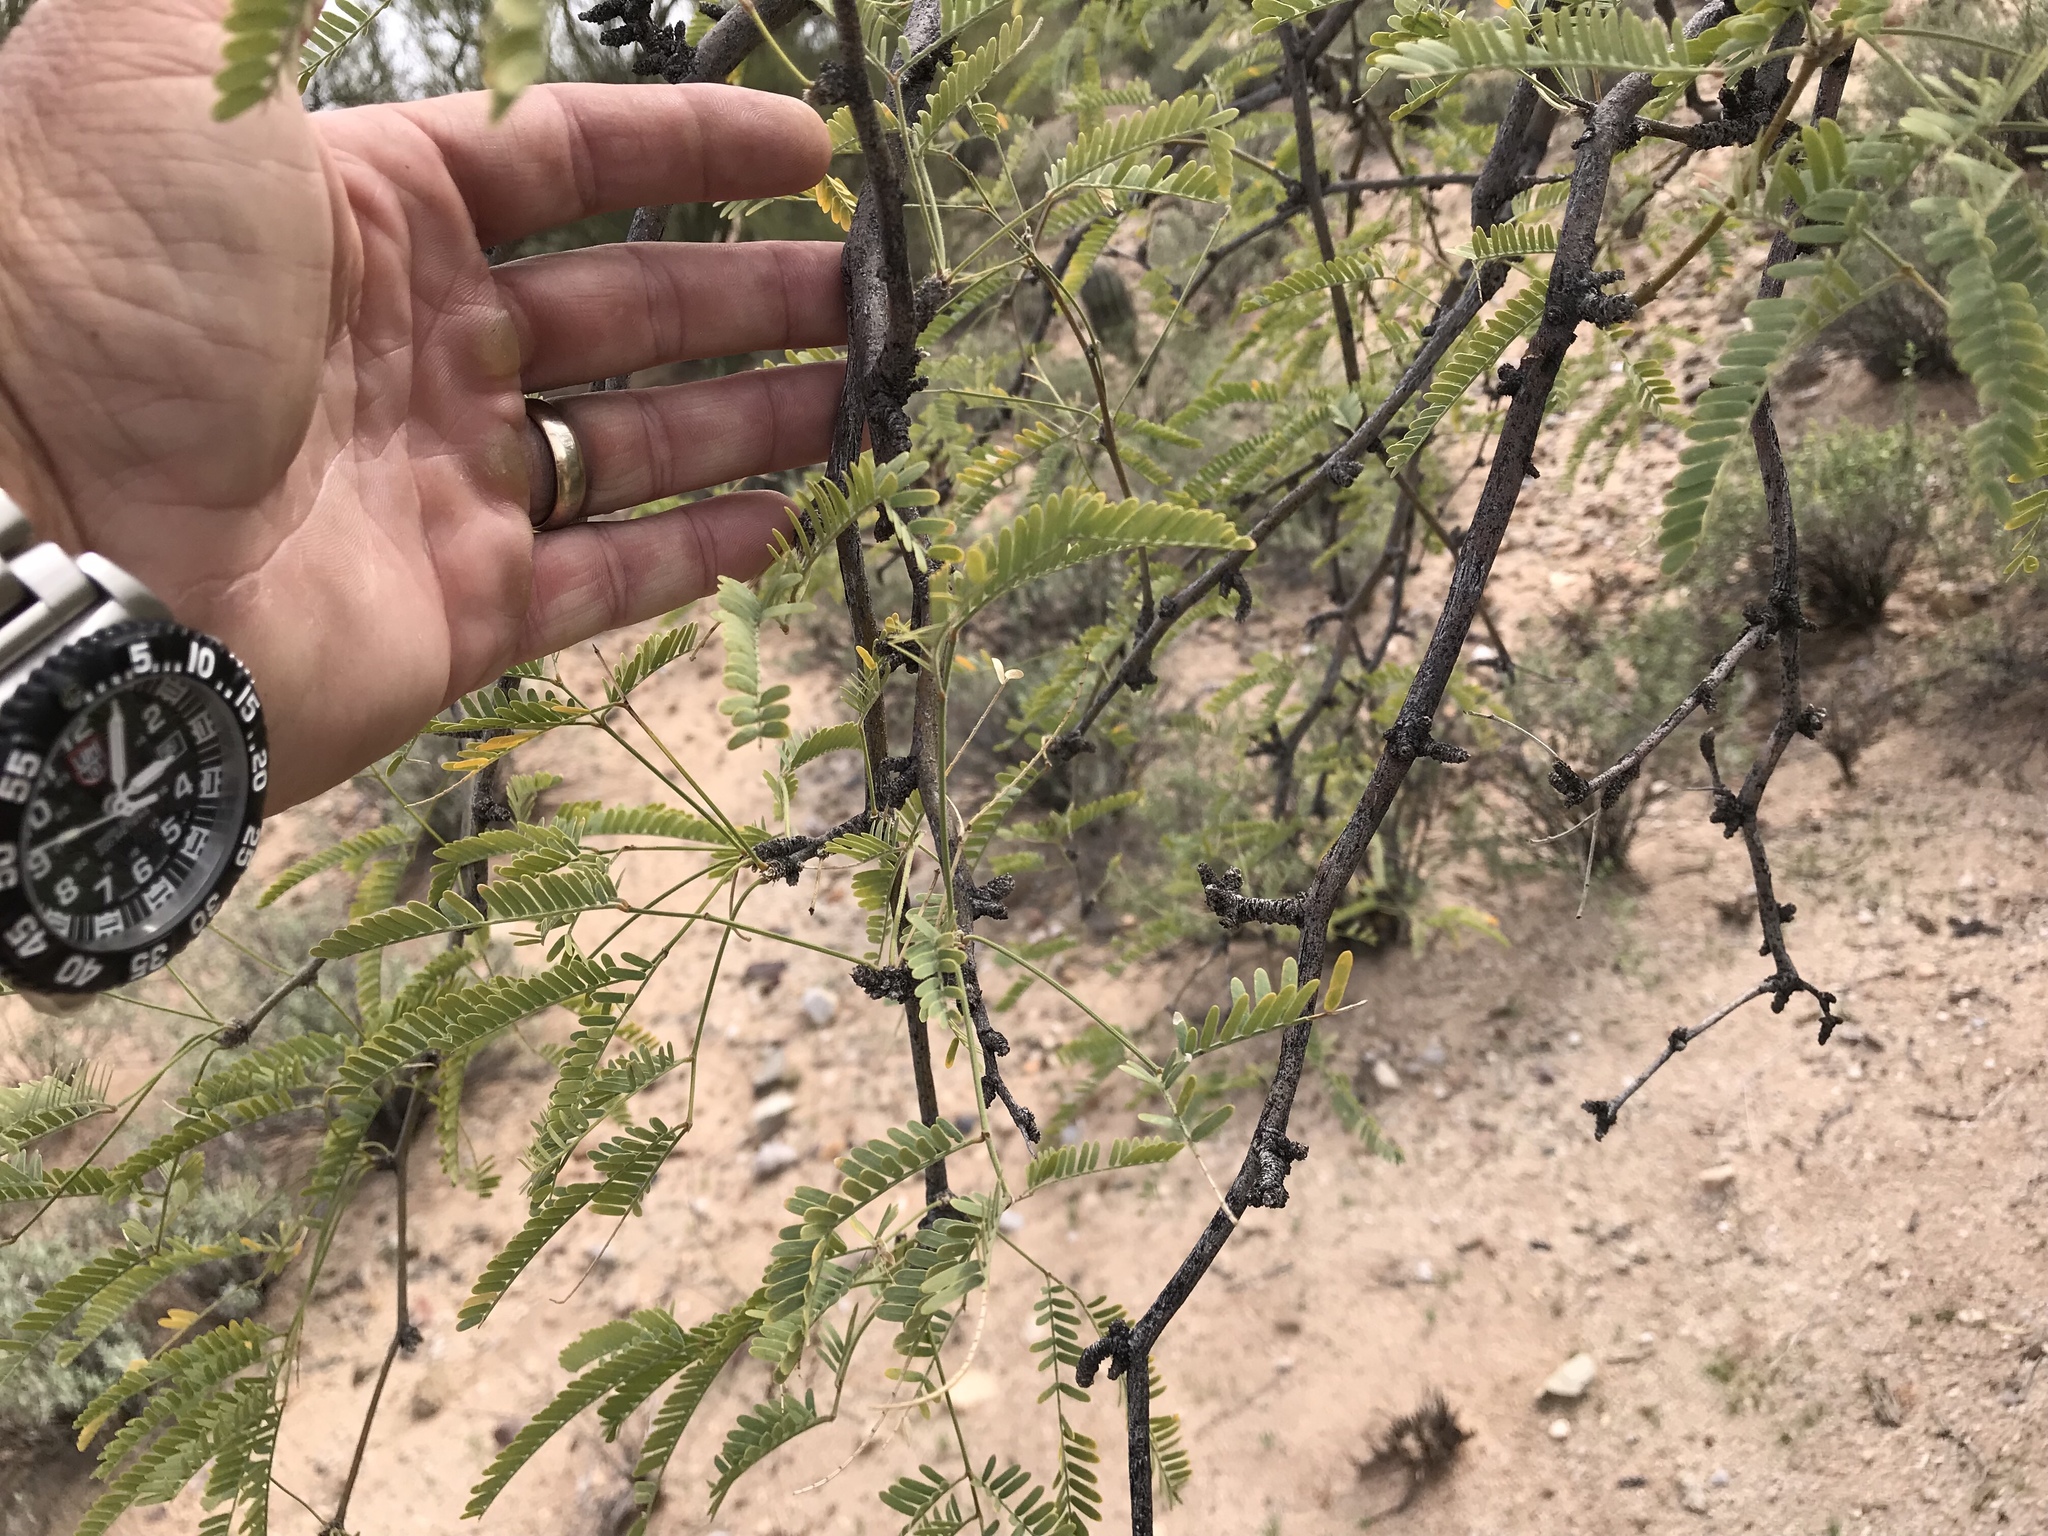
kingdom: Plantae
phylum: Tracheophyta
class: Magnoliopsida
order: Fabales
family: Fabaceae
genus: Prosopis
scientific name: Prosopis velutina
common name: Velvet mesquite
